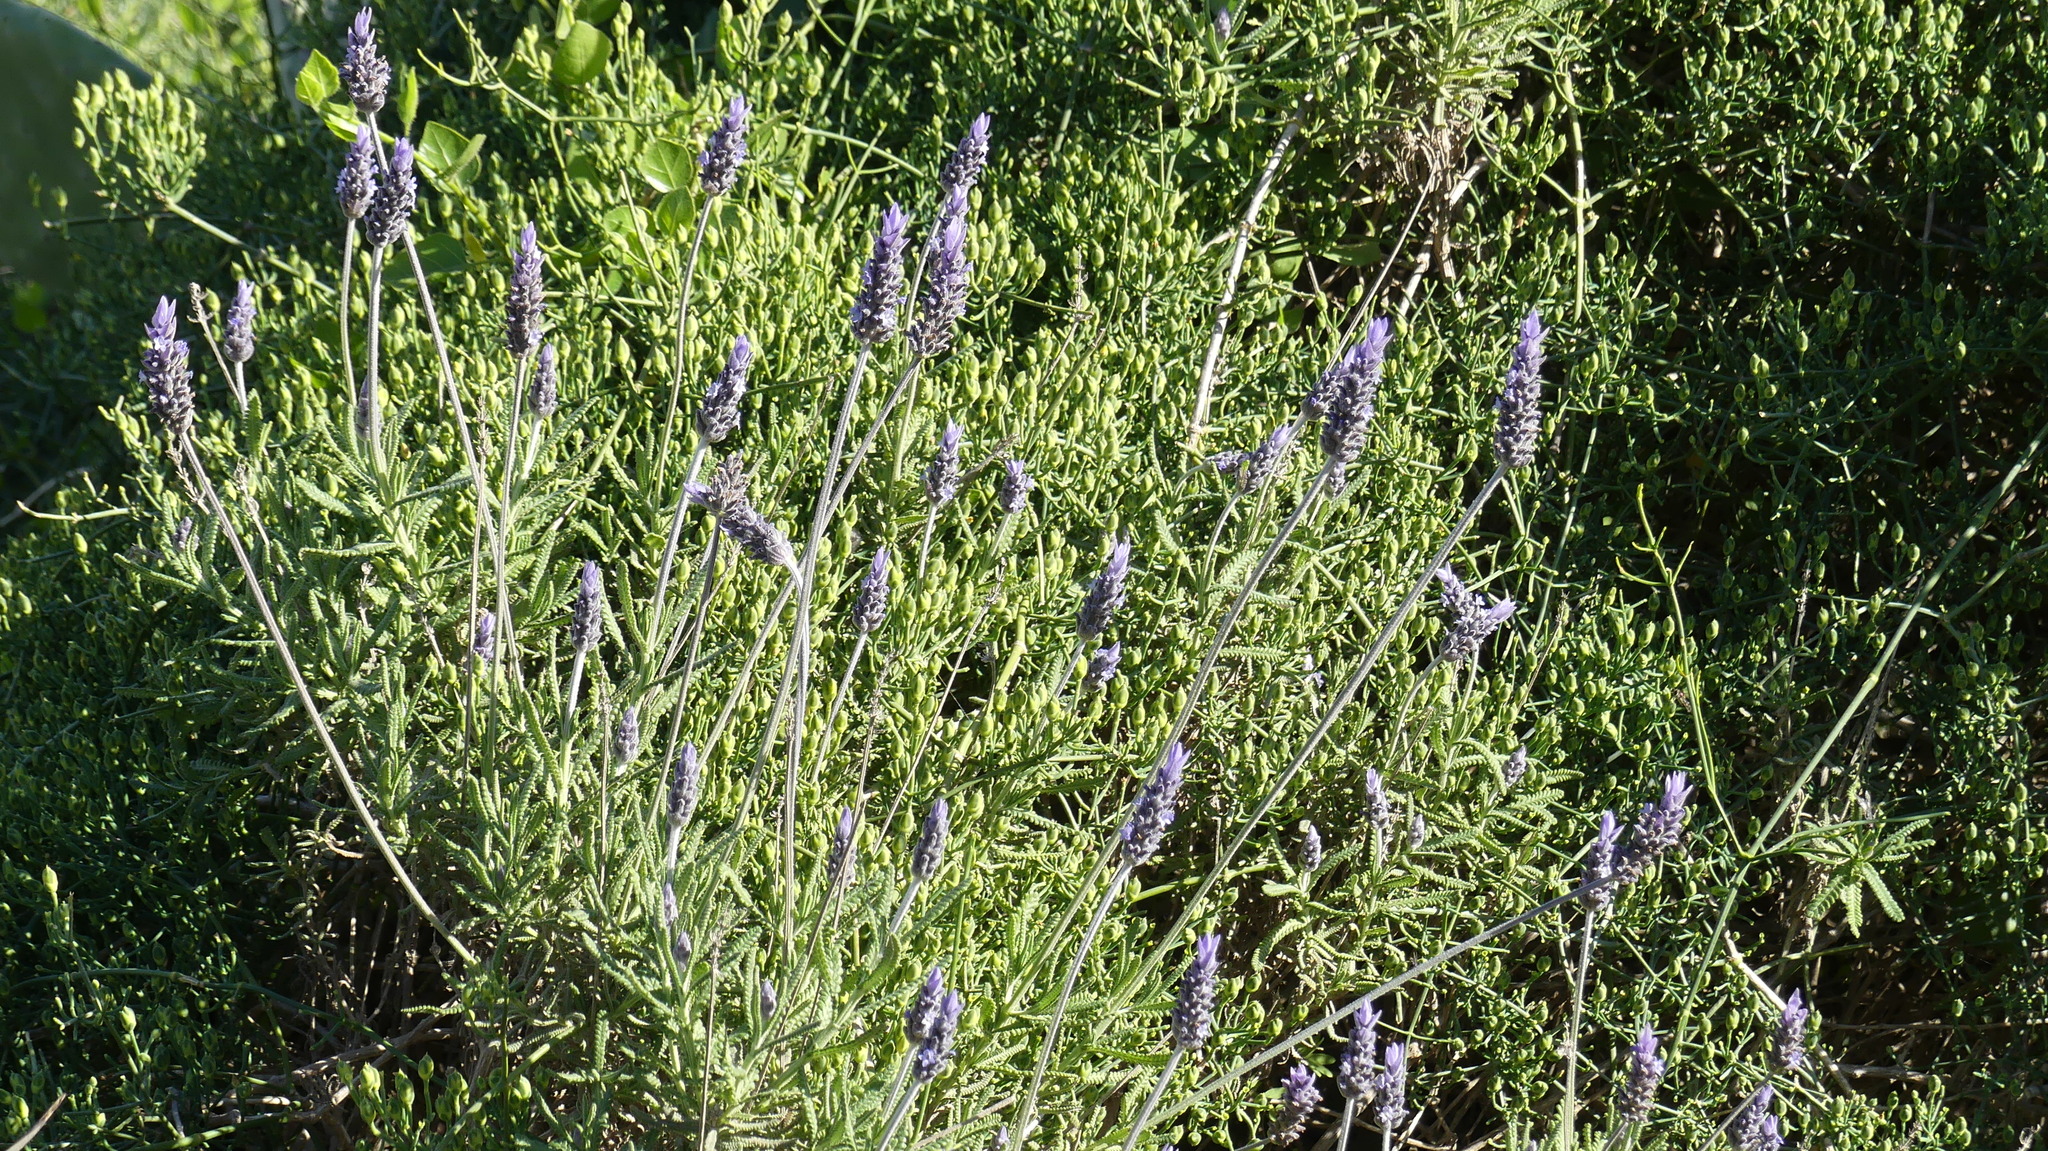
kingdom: Plantae
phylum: Tracheophyta
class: Magnoliopsida
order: Lamiales
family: Lamiaceae
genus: Lavandula
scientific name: Lavandula dentata
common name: French lavender
